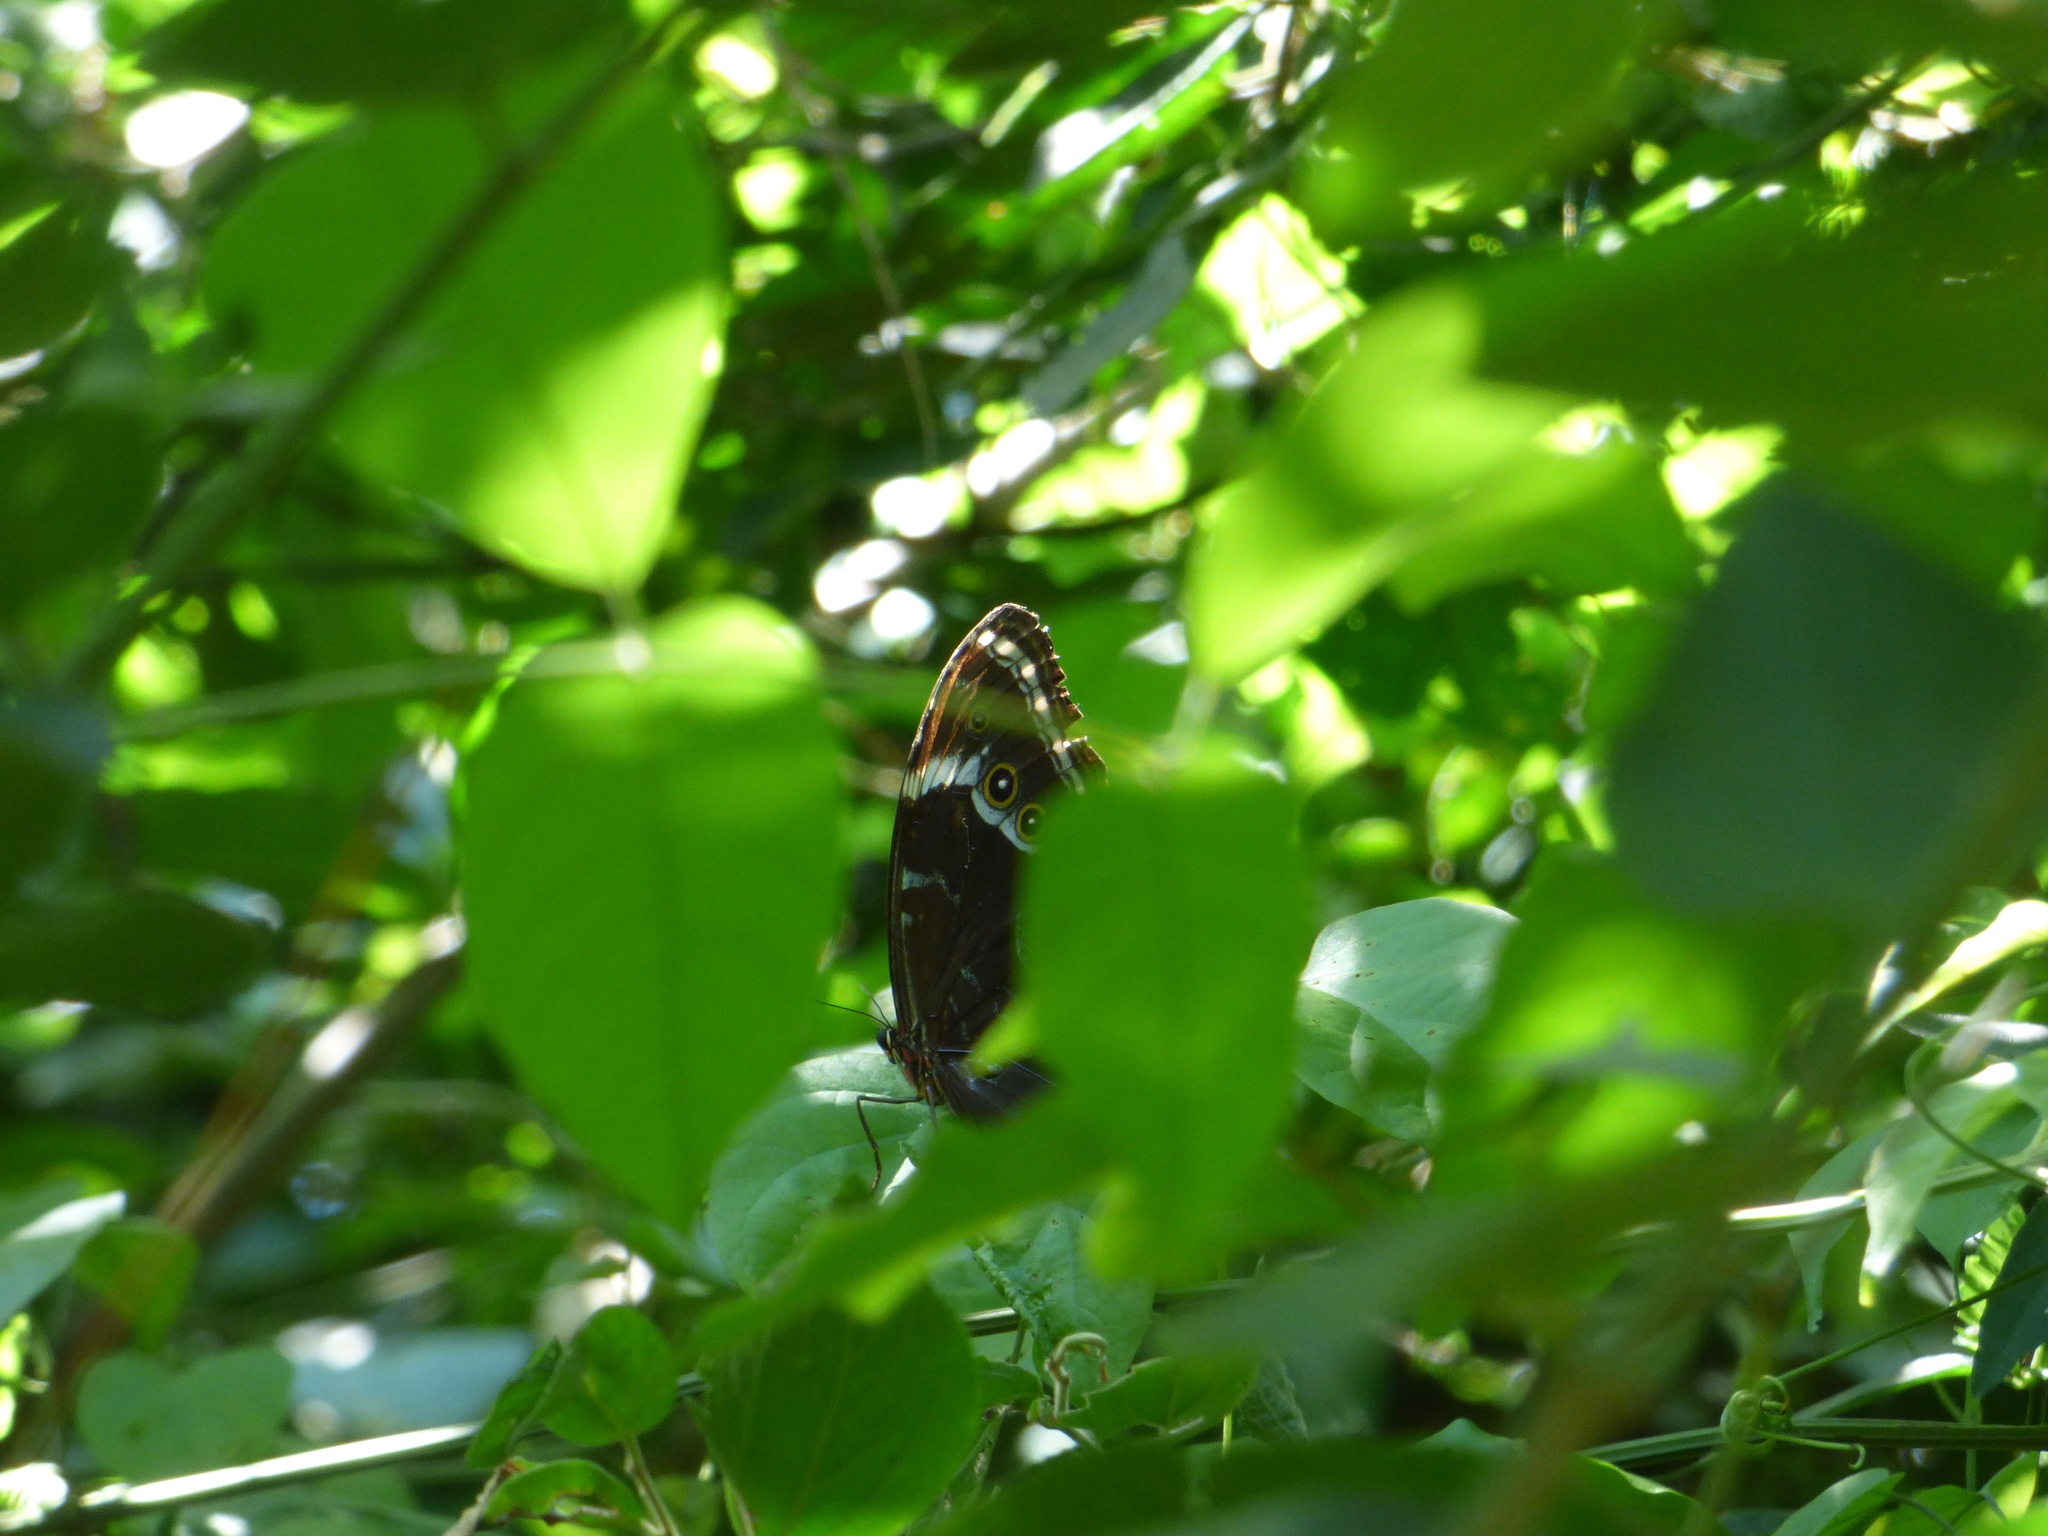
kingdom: Animalia
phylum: Arthropoda
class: Insecta
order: Lepidoptera
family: Nymphalidae
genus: Morpho
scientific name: Morpho helenor
